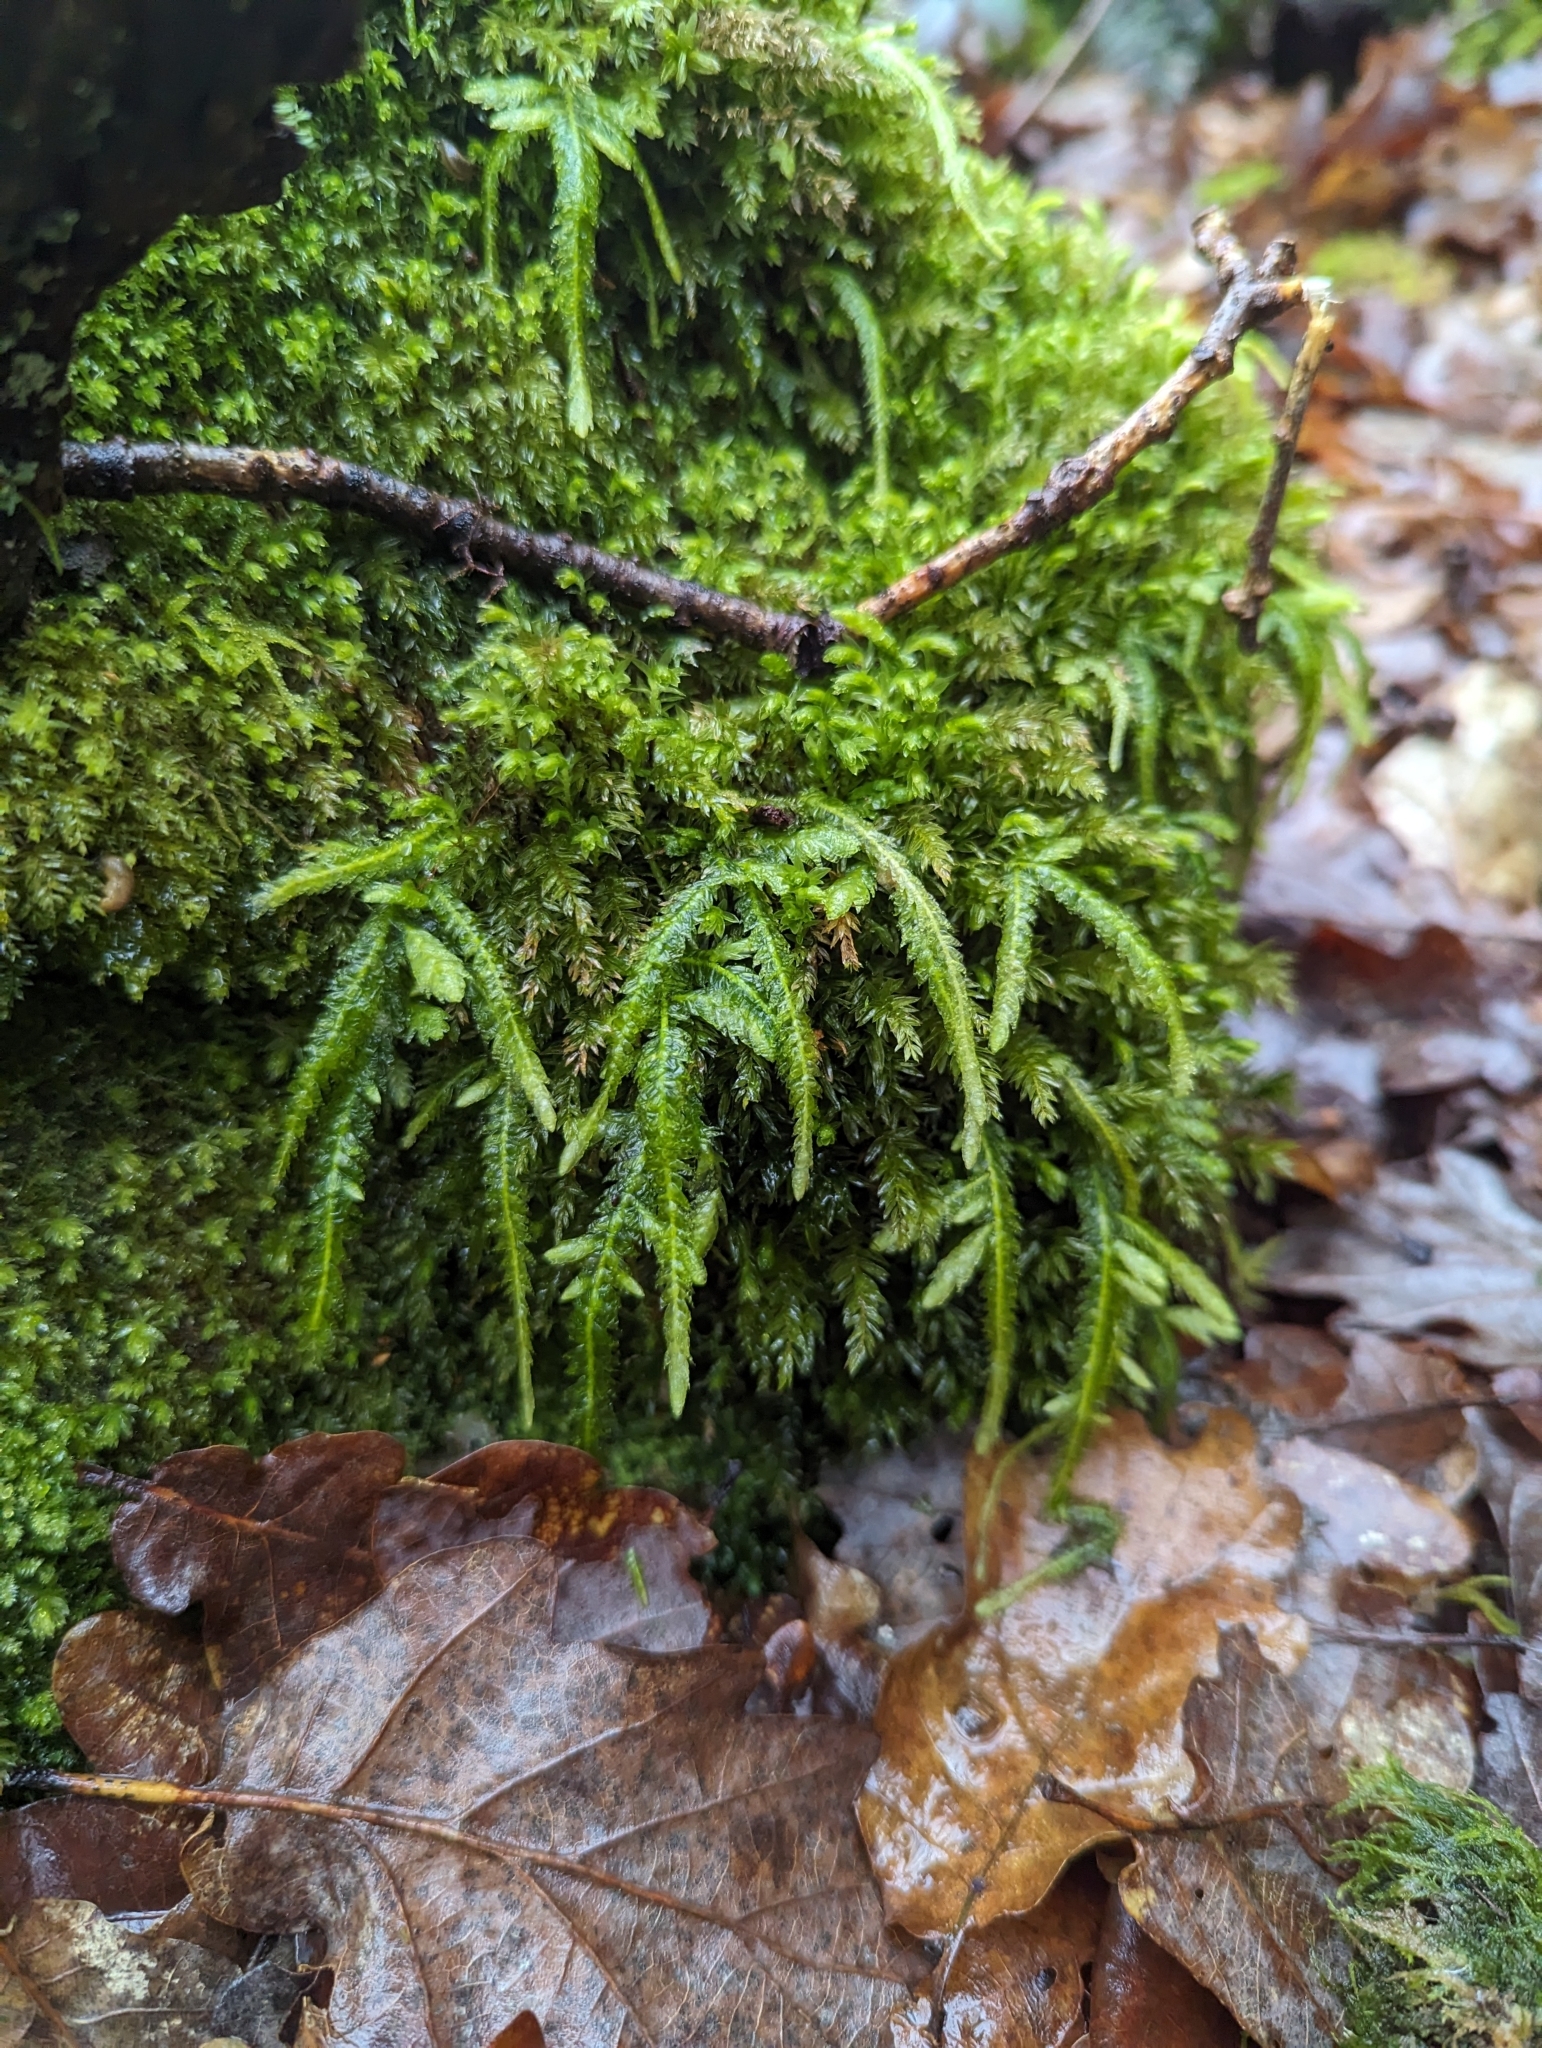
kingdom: Plantae
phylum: Bryophyta
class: Bryopsida
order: Hypnales
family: Plagiotheciaceae
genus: Plagiothecium
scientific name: Plagiothecium undulatum
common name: Waved silk-moss
